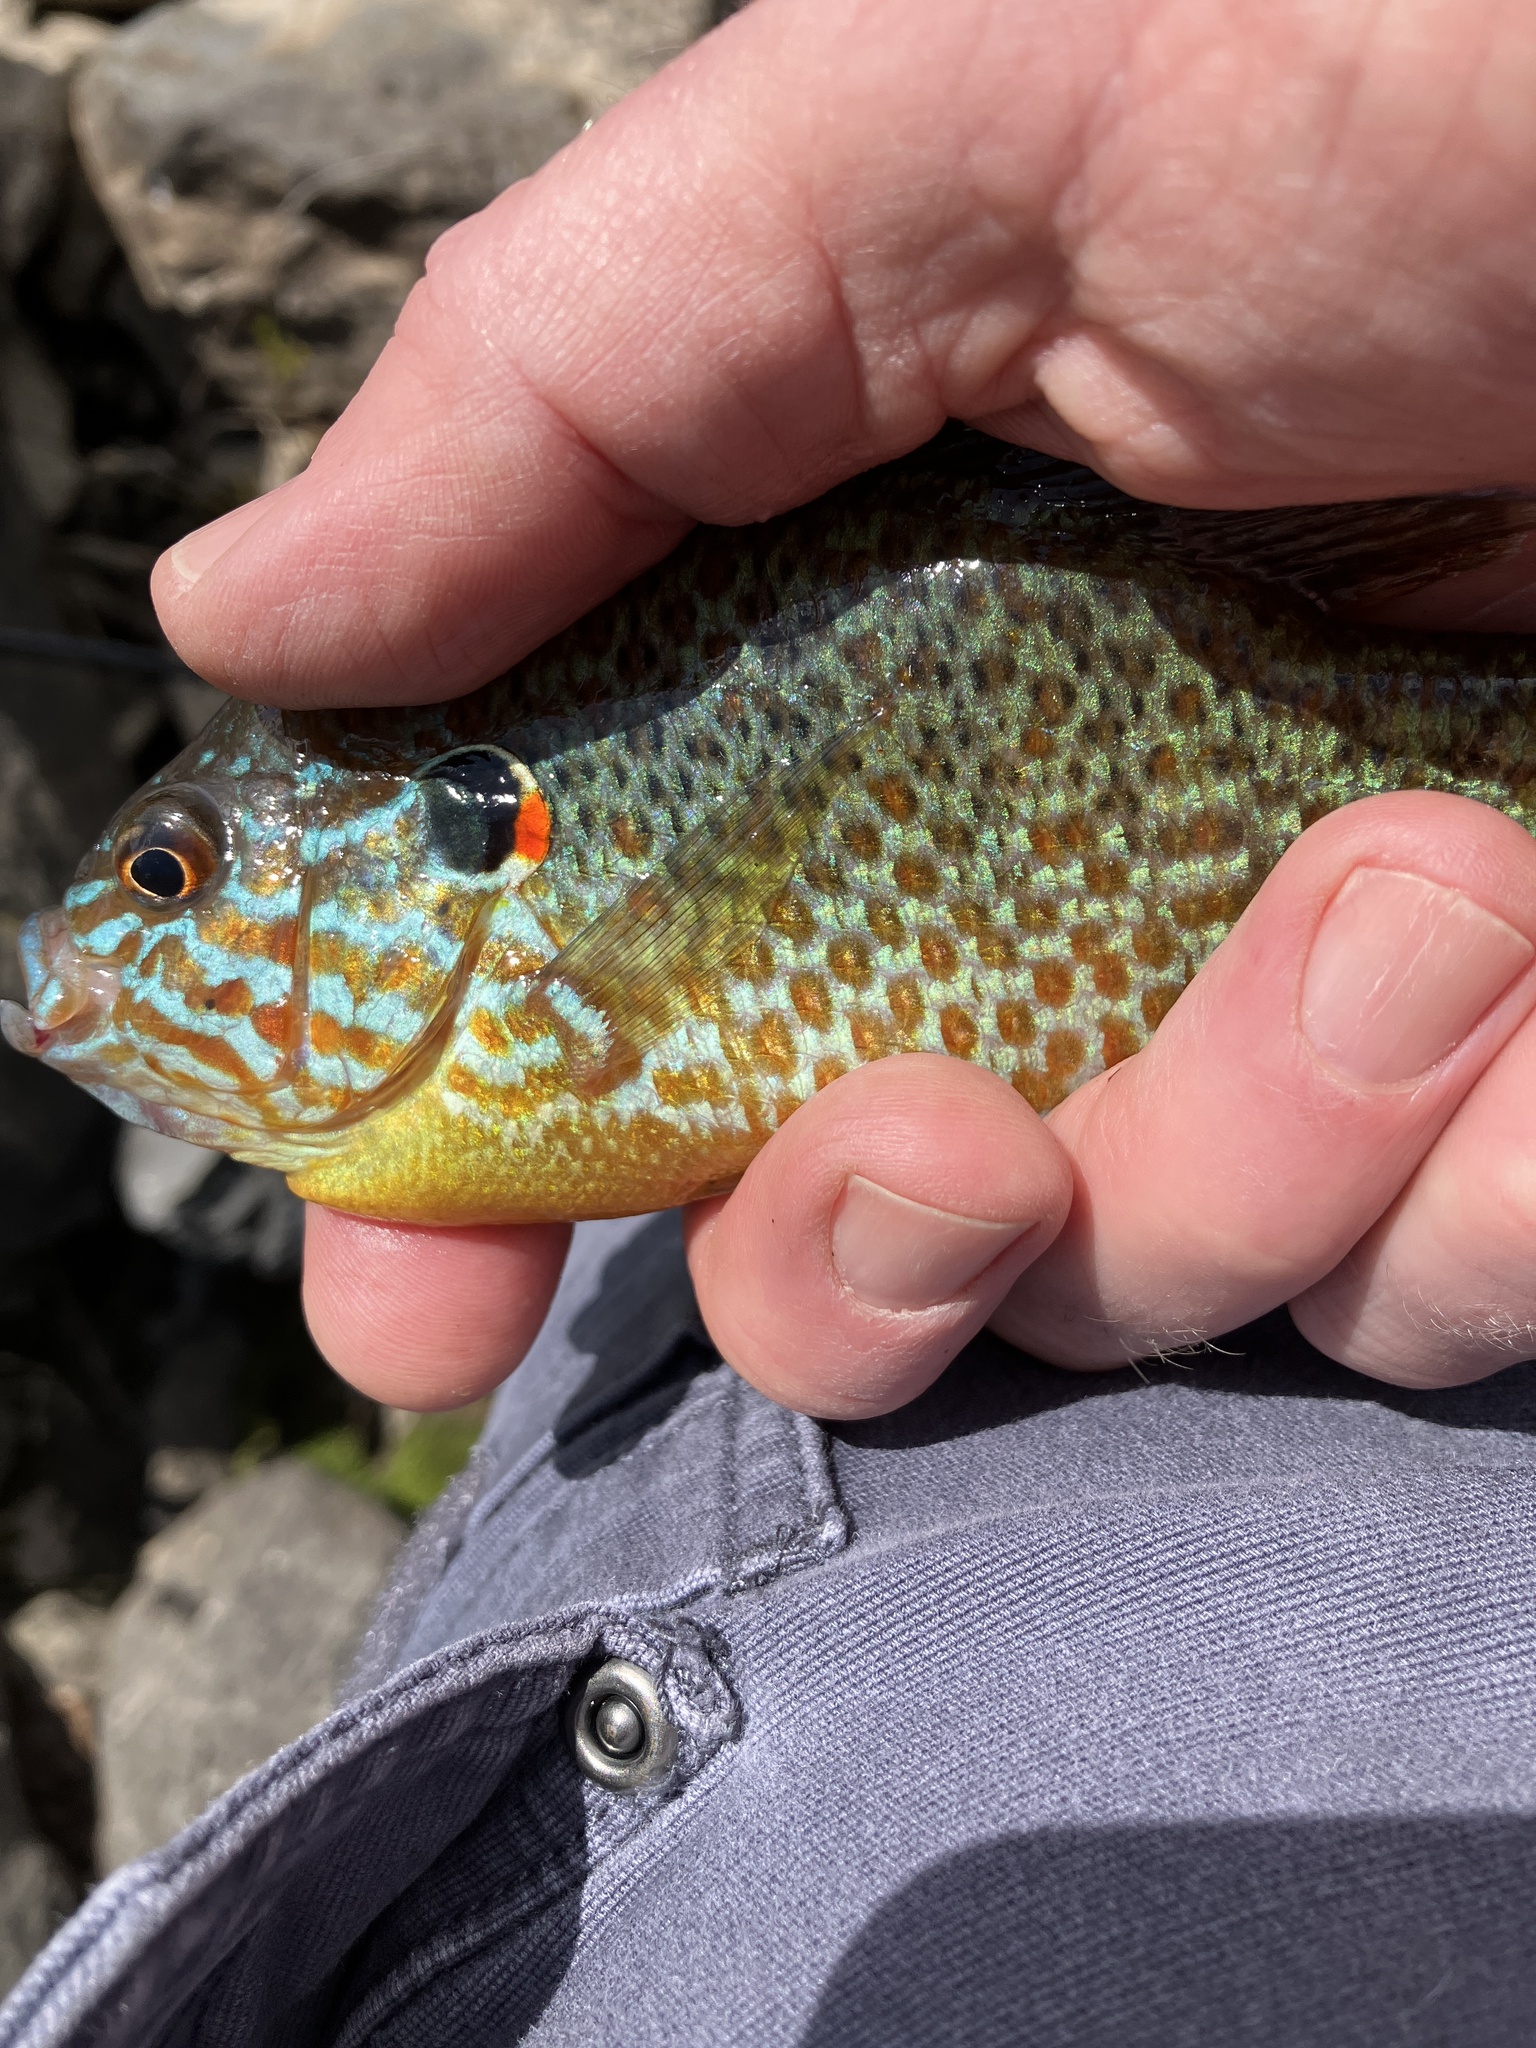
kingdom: Animalia
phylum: Chordata
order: Perciformes
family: Centrarchidae
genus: Lepomis
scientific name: Lepomis gibbosus
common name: Pumpkinseed
